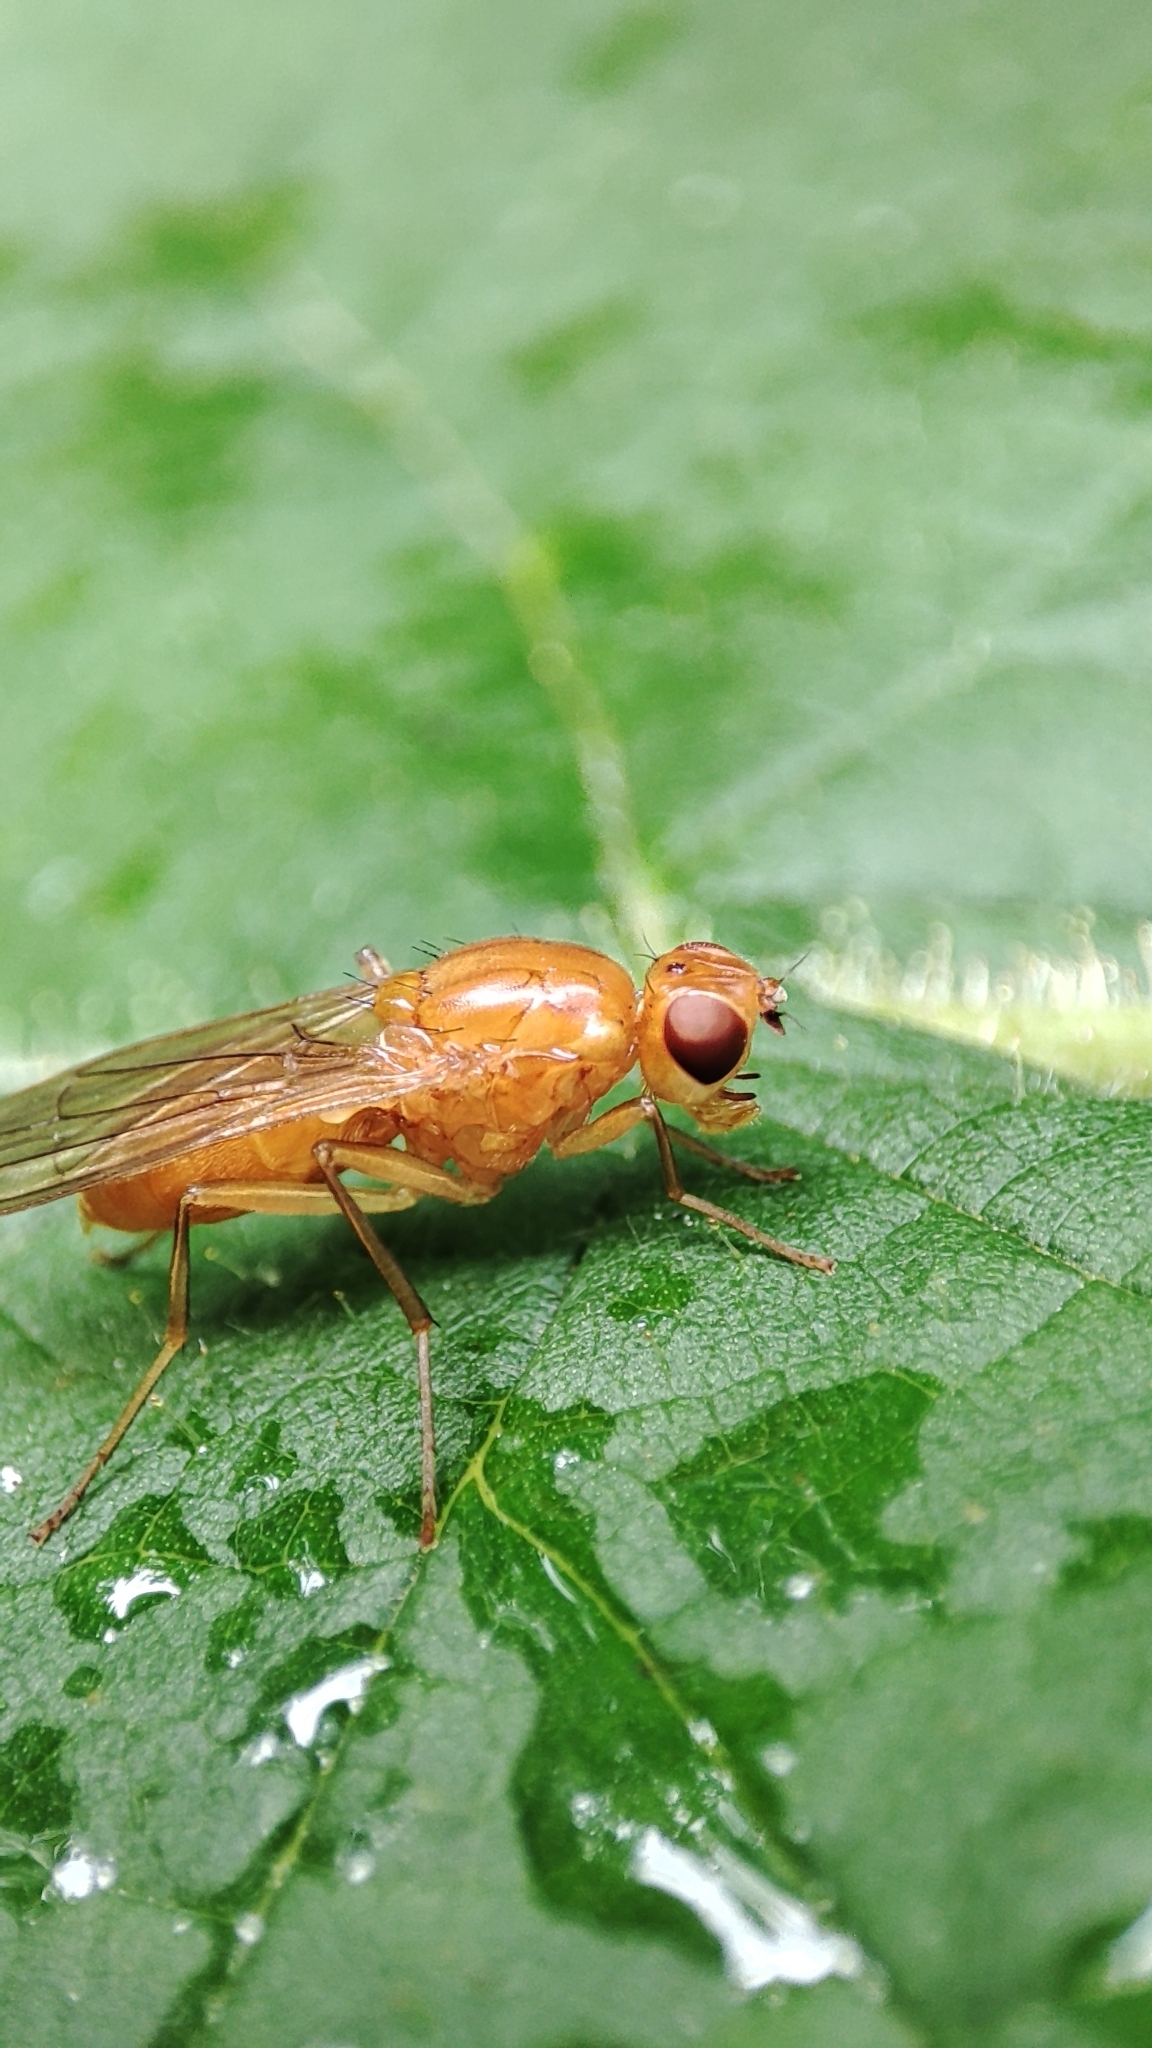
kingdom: Animalia
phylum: Arthropoda
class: Insecta
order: Diptera
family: Psilidae
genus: Psila
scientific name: Psila fimetaria
